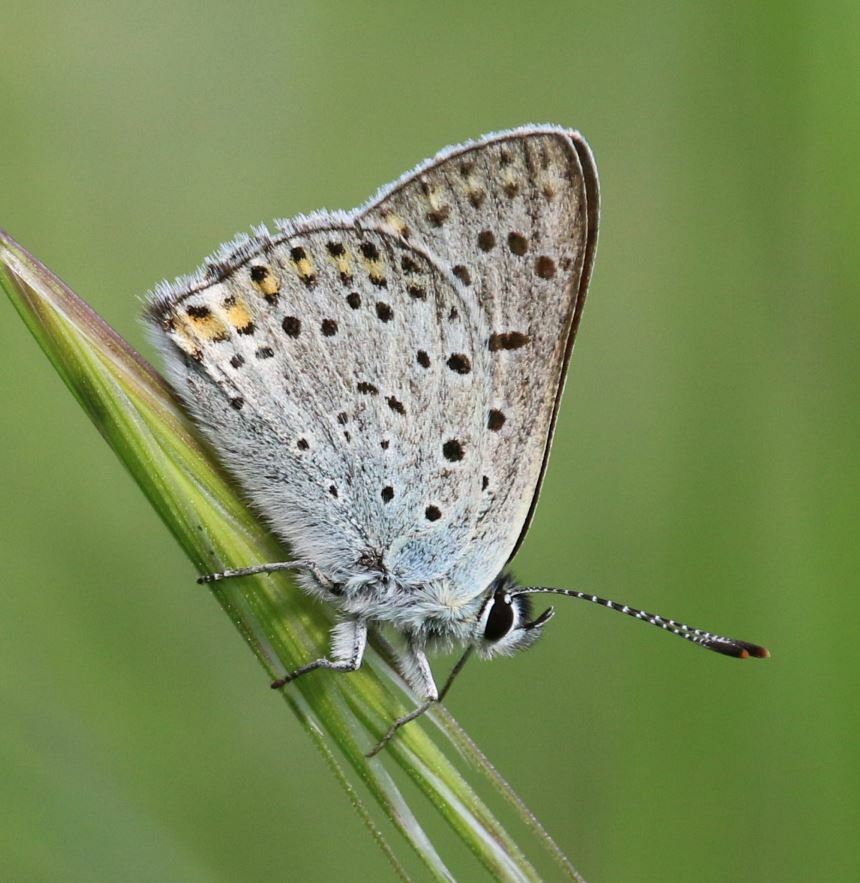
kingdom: Animalia
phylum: Arthropoda
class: Insecta
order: Lepidoptera
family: Lycaenidae
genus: Loweia
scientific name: Loweia tityrus
